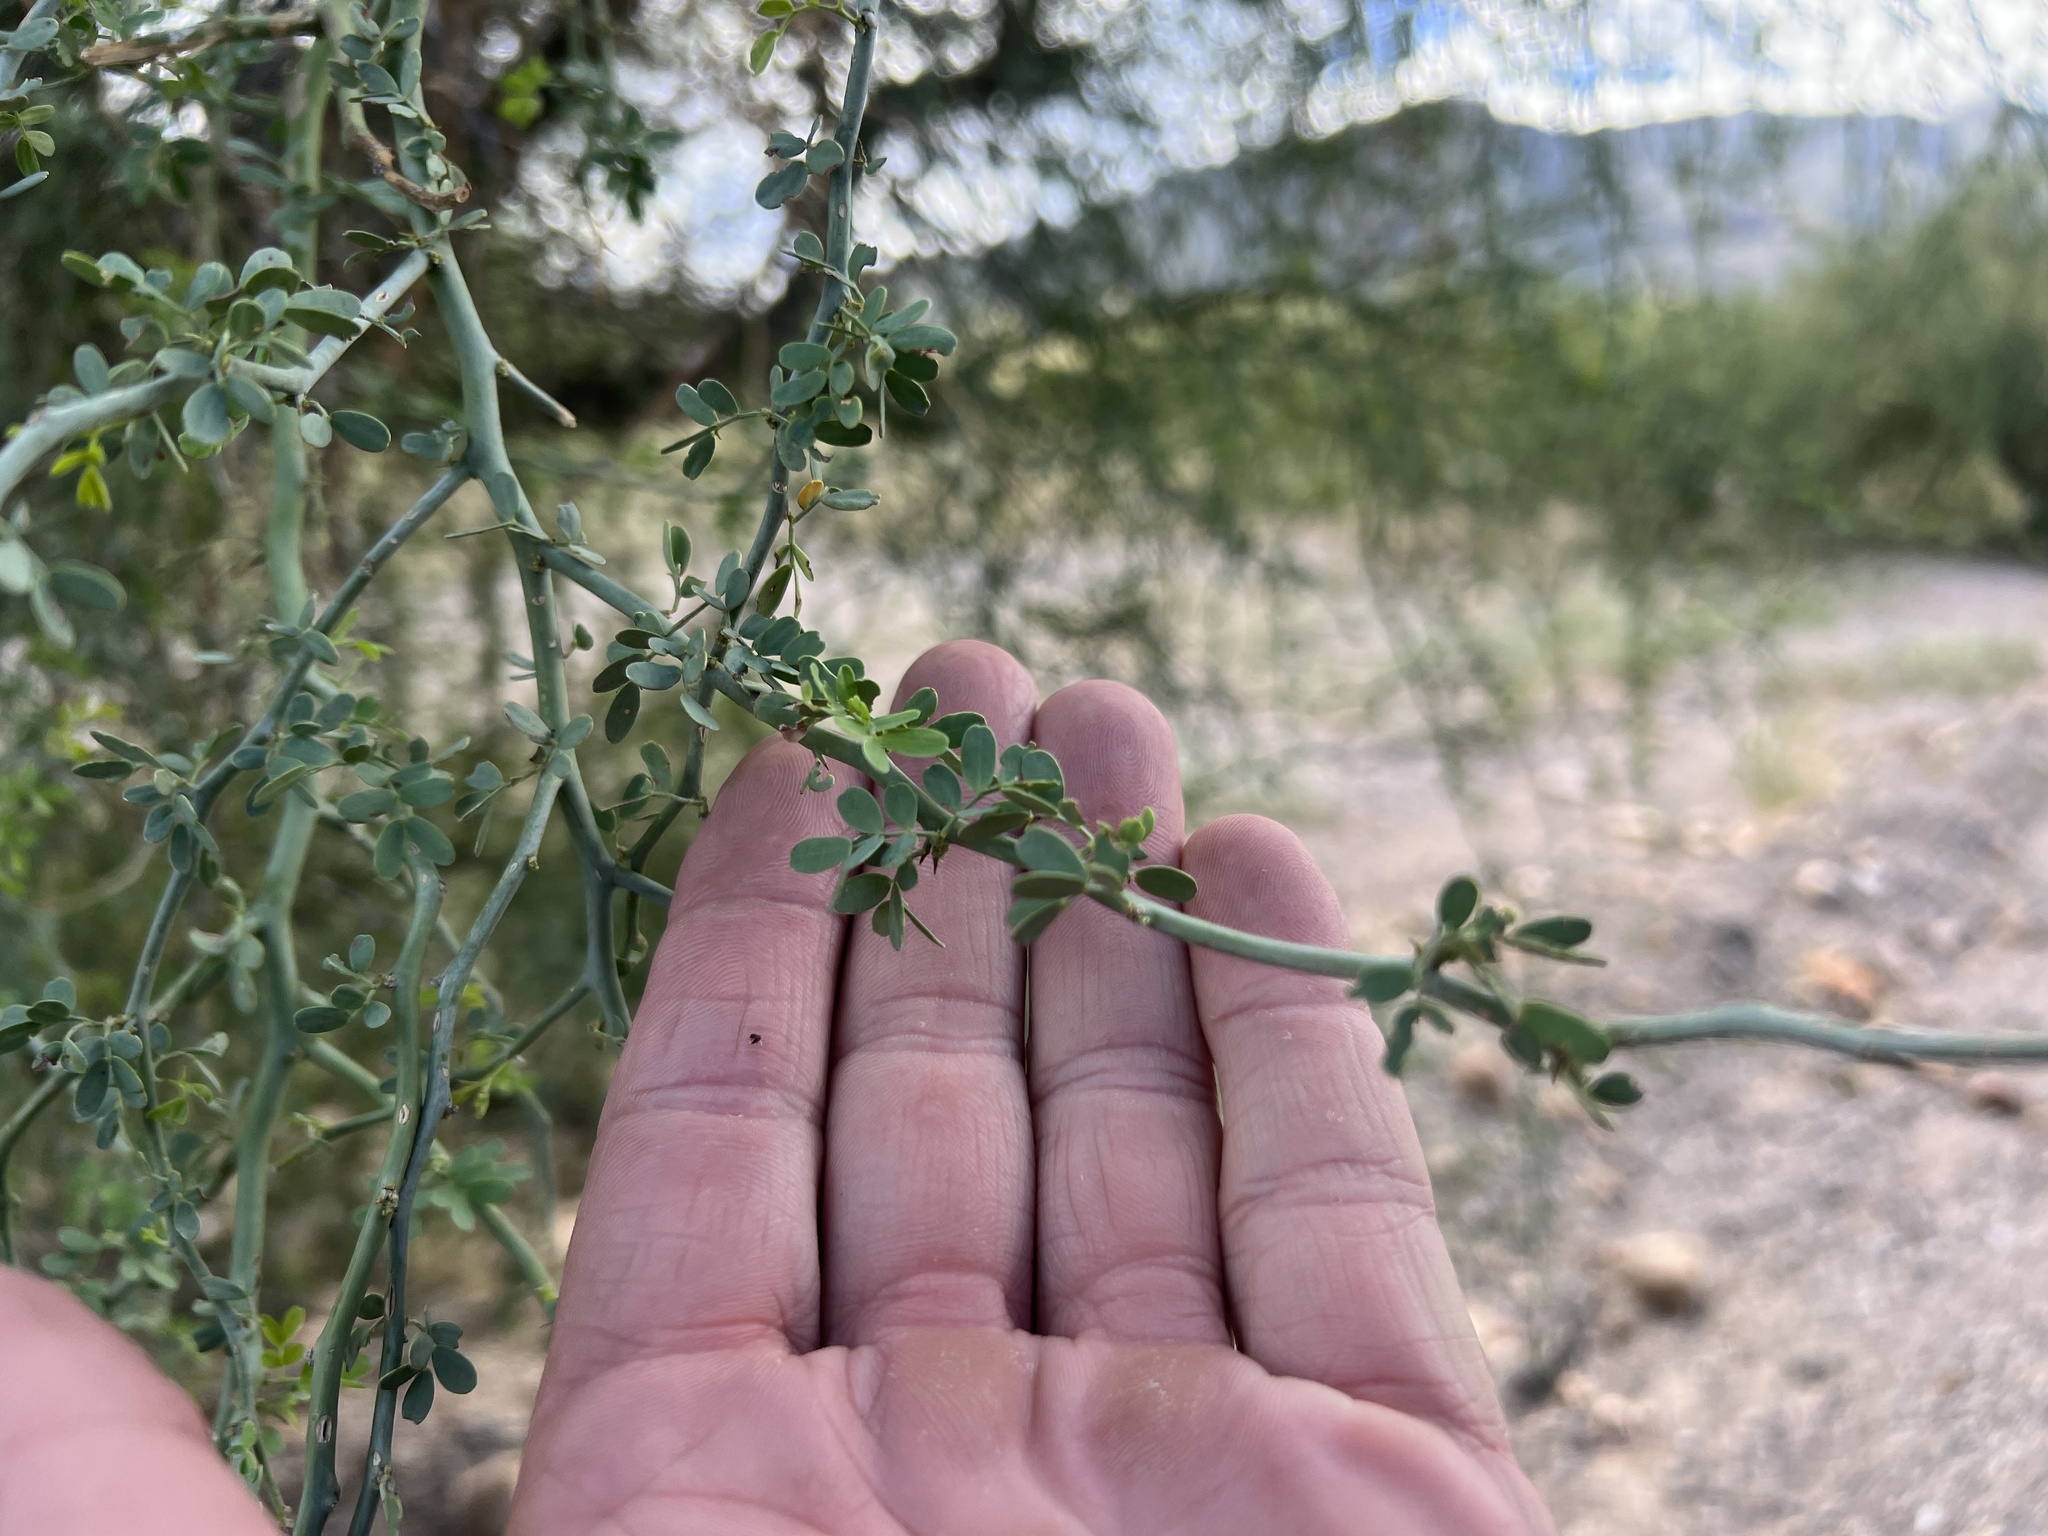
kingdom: Plantae
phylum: Tracheophyta
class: Magnoliopsida
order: Fabales
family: Fabaceae
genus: Parkinsonia
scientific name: Parkinsonia florida
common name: Blue paloverde
